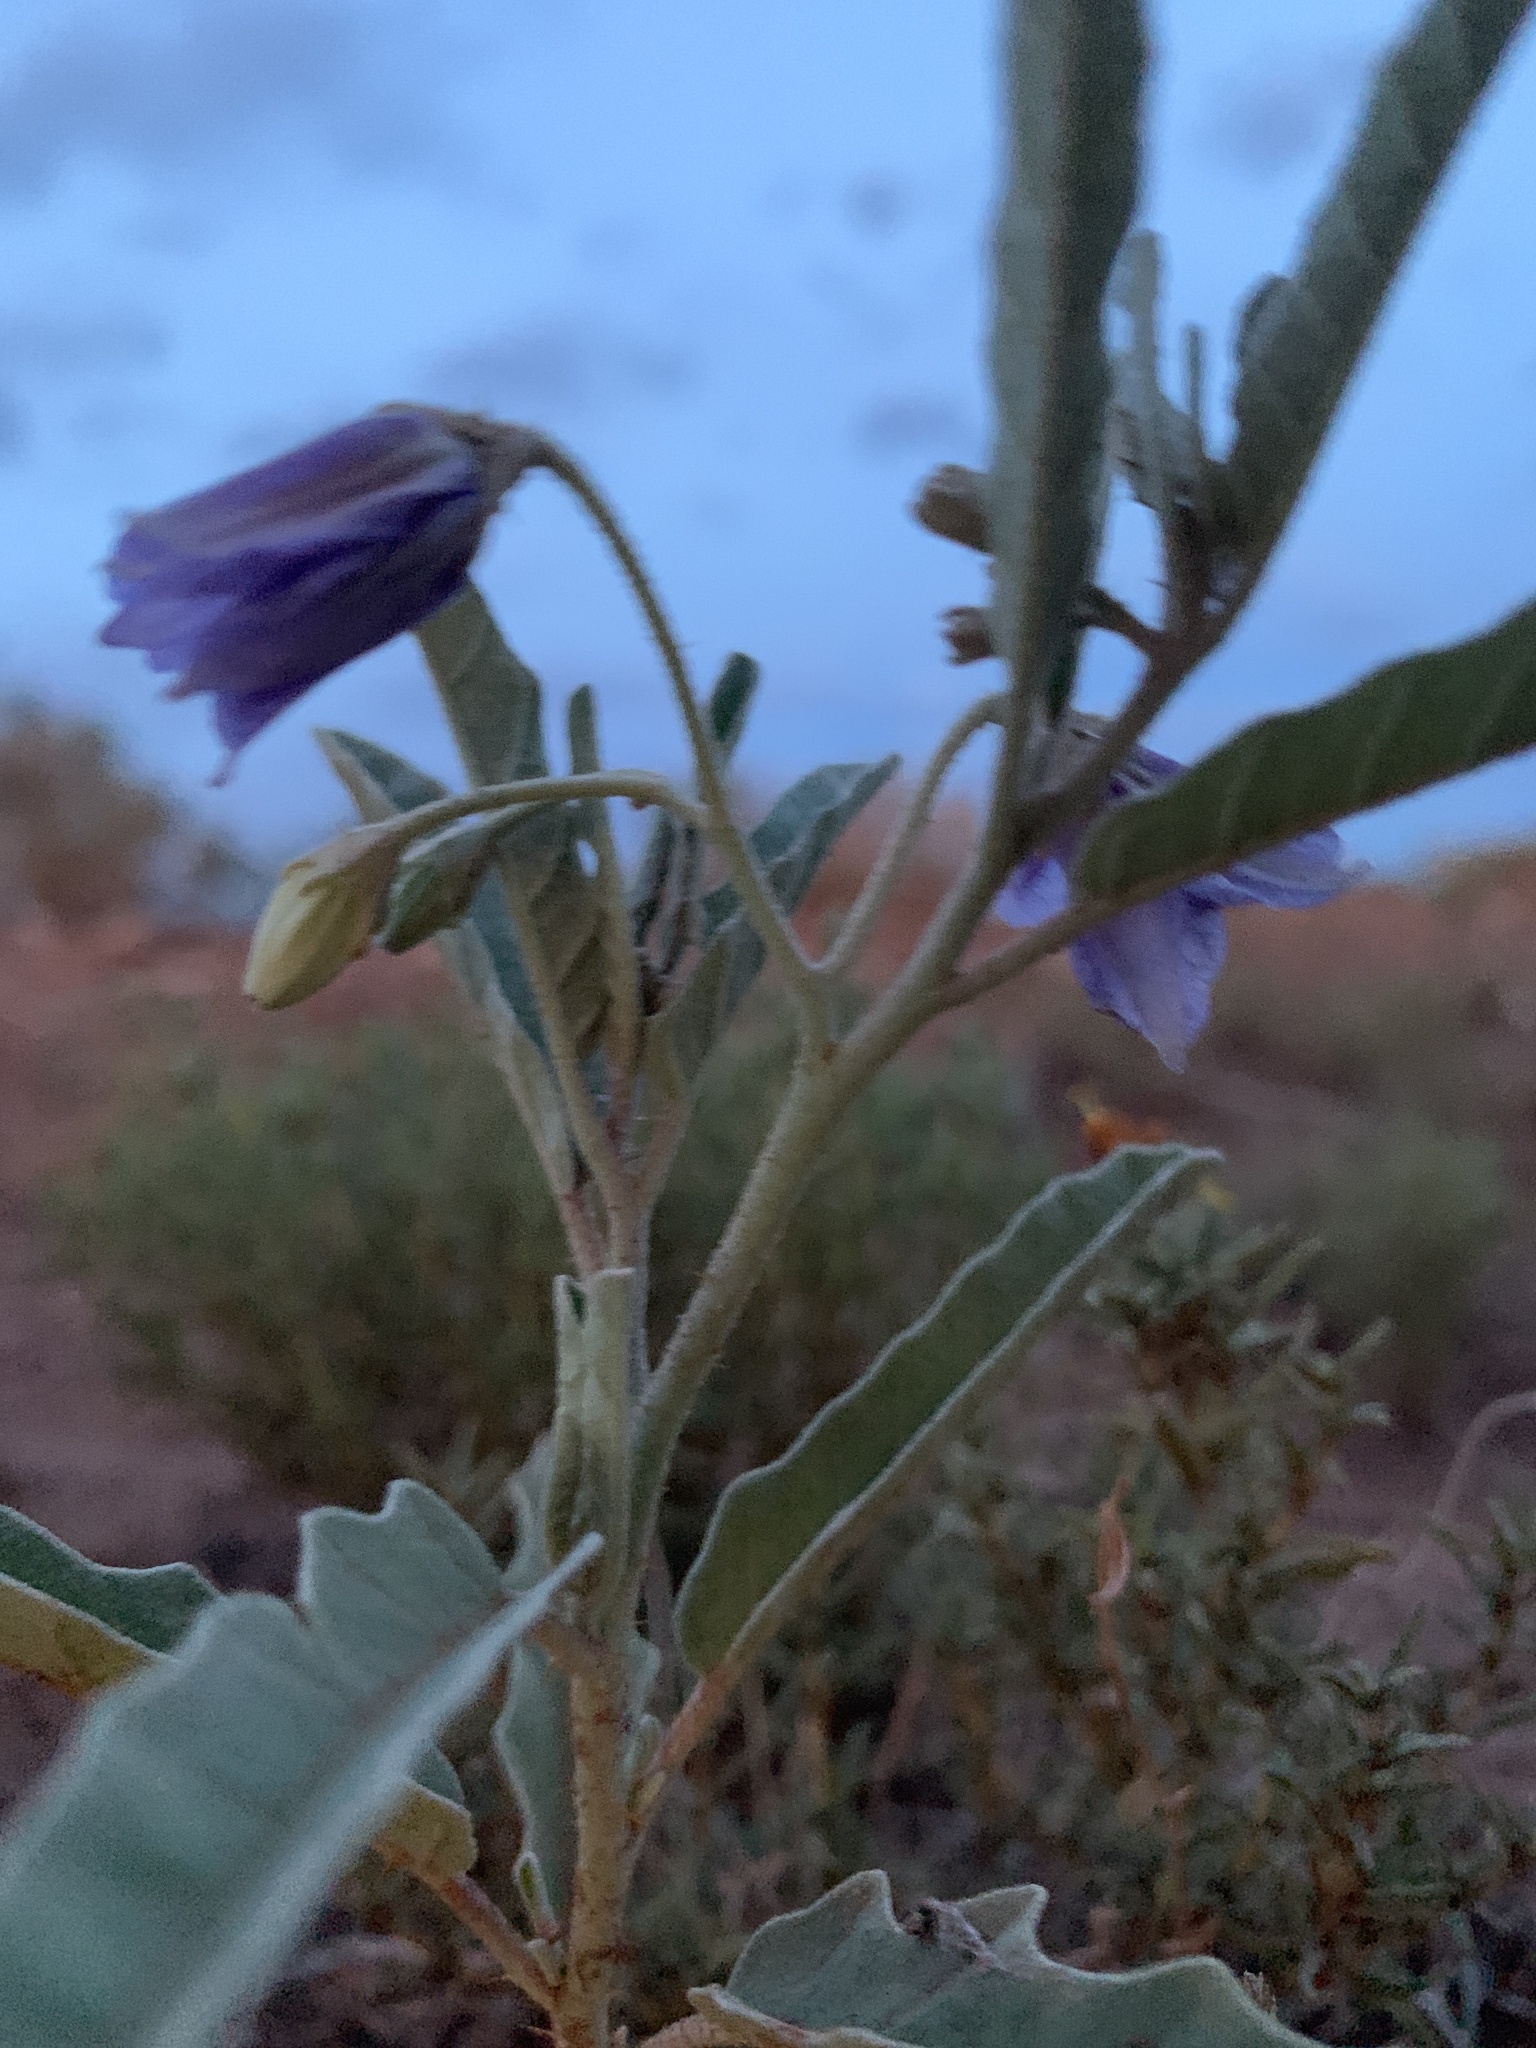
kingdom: Plantae
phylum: Tracheophyta
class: Magnoliopsida
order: Solanales
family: Solanaceae
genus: Solanum
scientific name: Solanum elaeagnifolium
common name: Silverleaf nightshade
